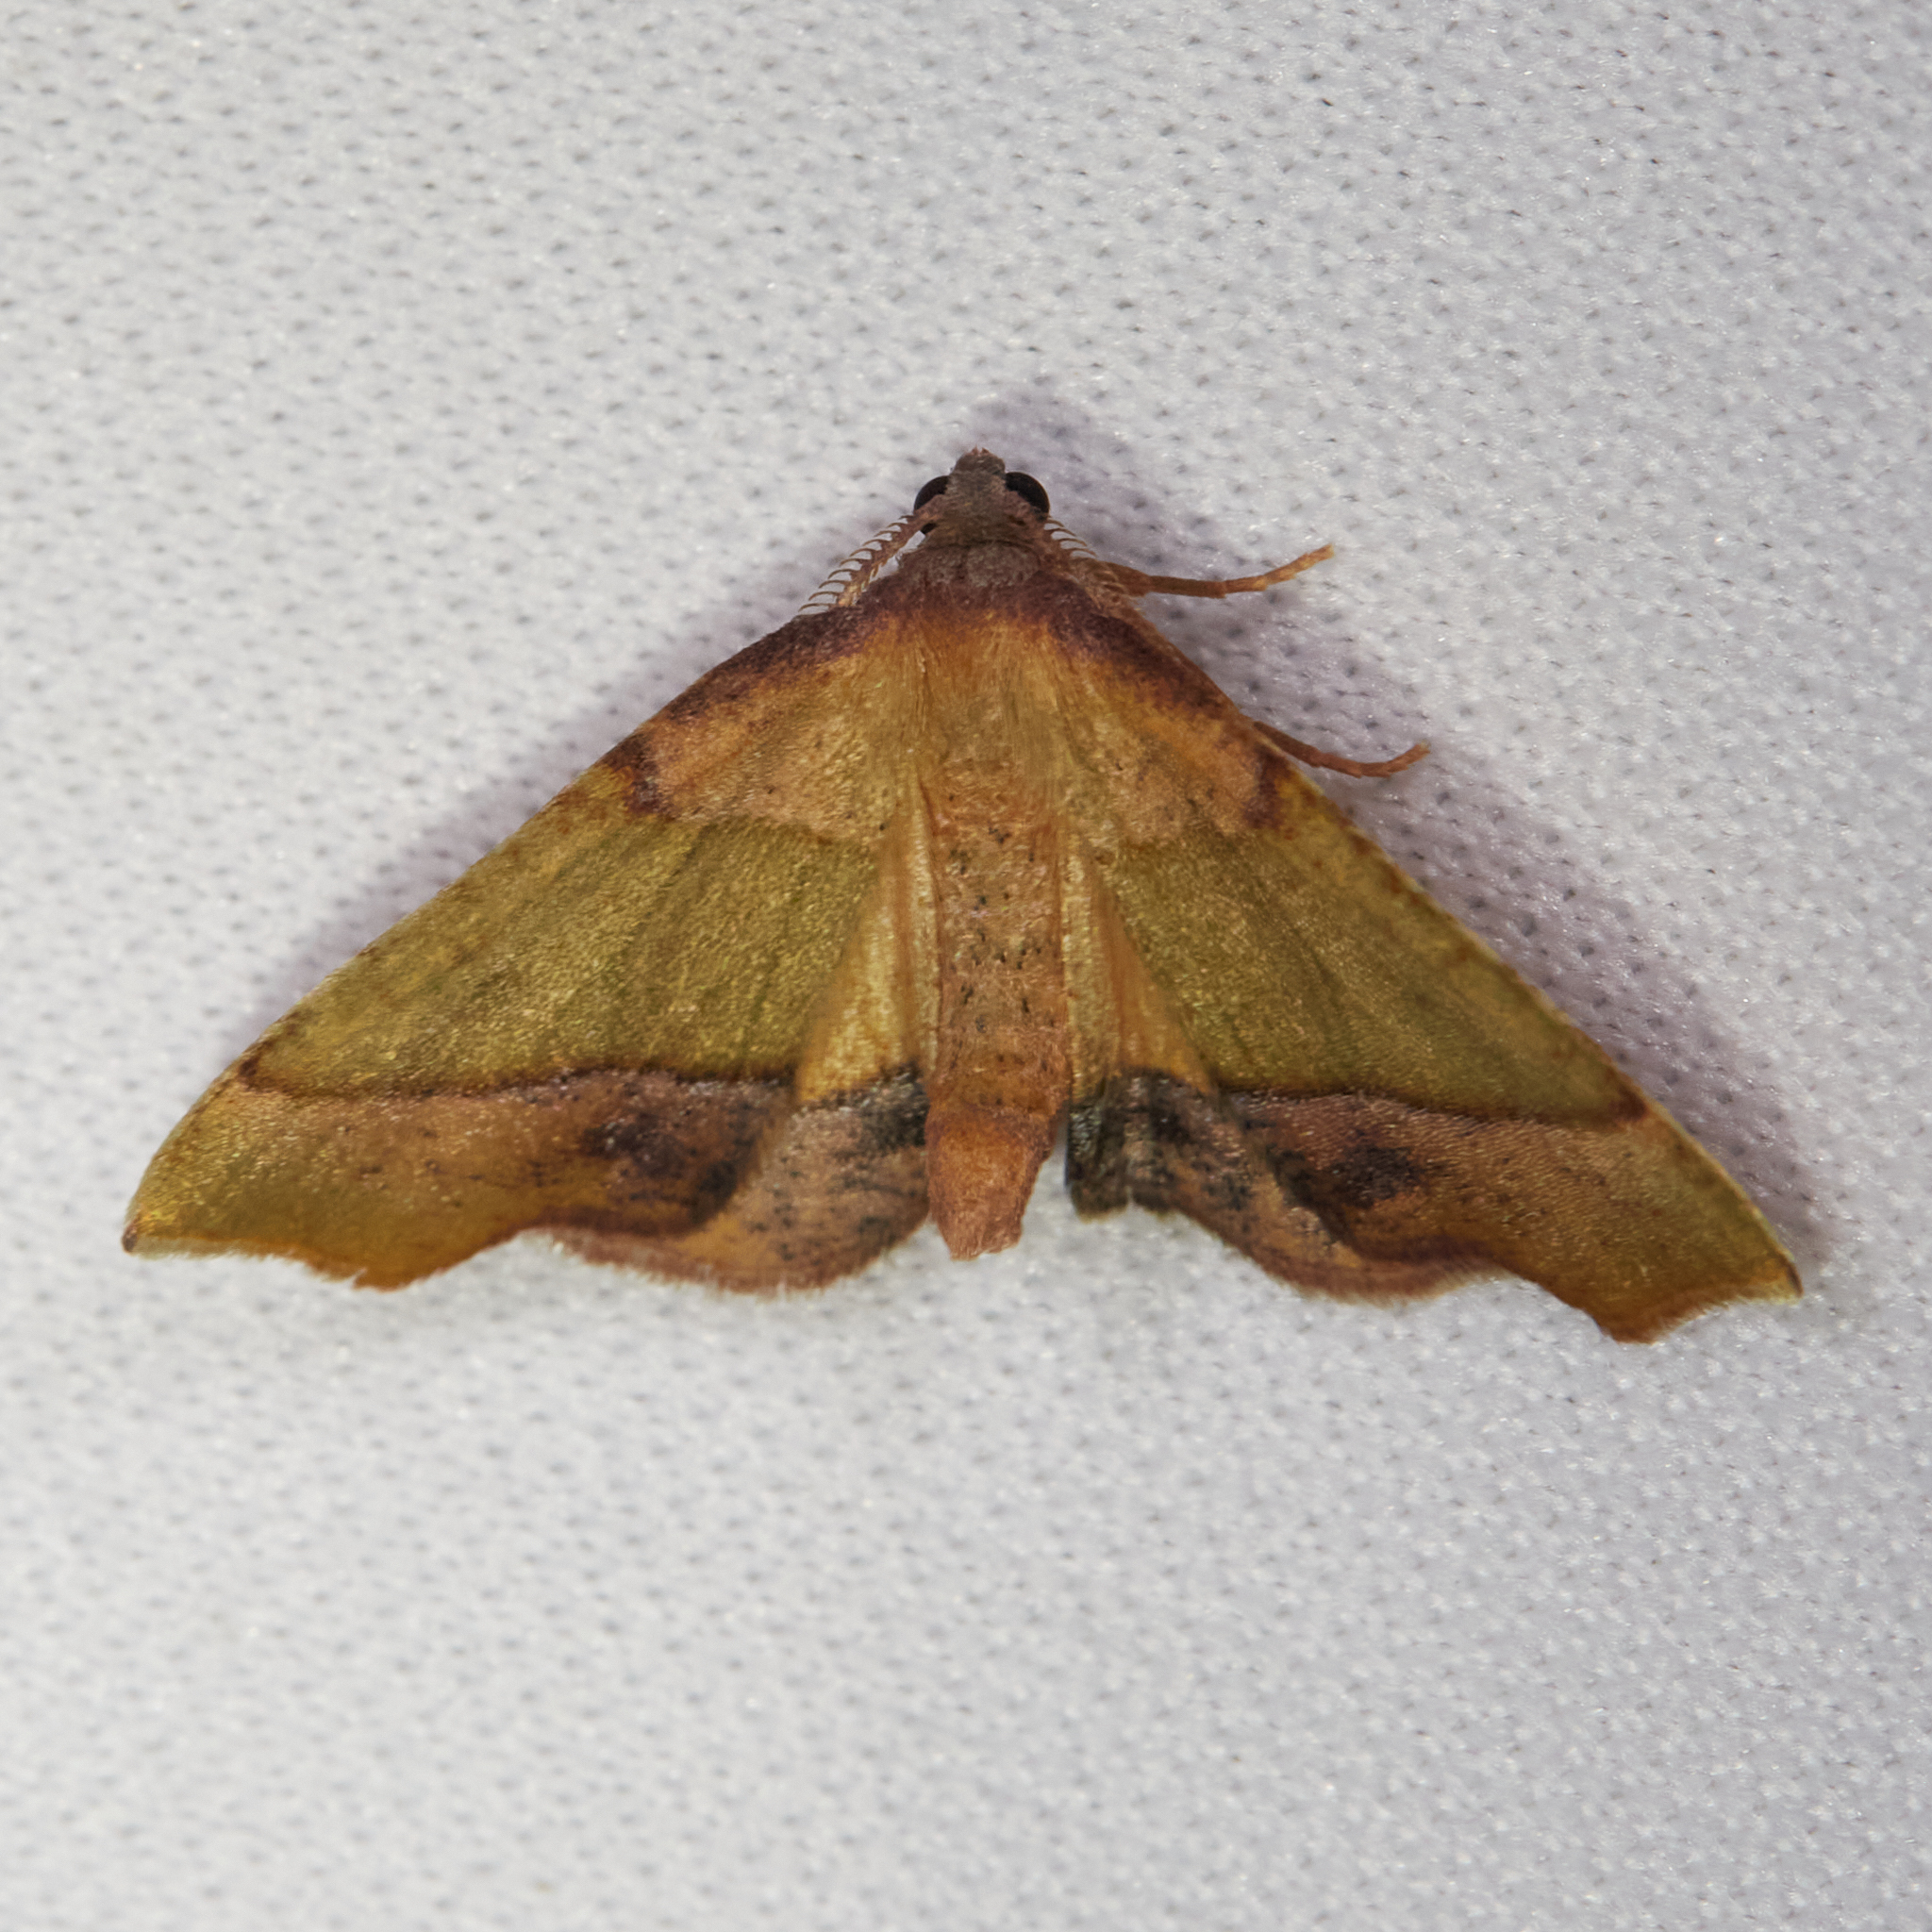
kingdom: Animalia
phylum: Arthropoda
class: Insecta
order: Lepidoptera
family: Geometridae
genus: Plagodis
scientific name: Plagodis phlogosaria
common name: Straight-lined plagodis
